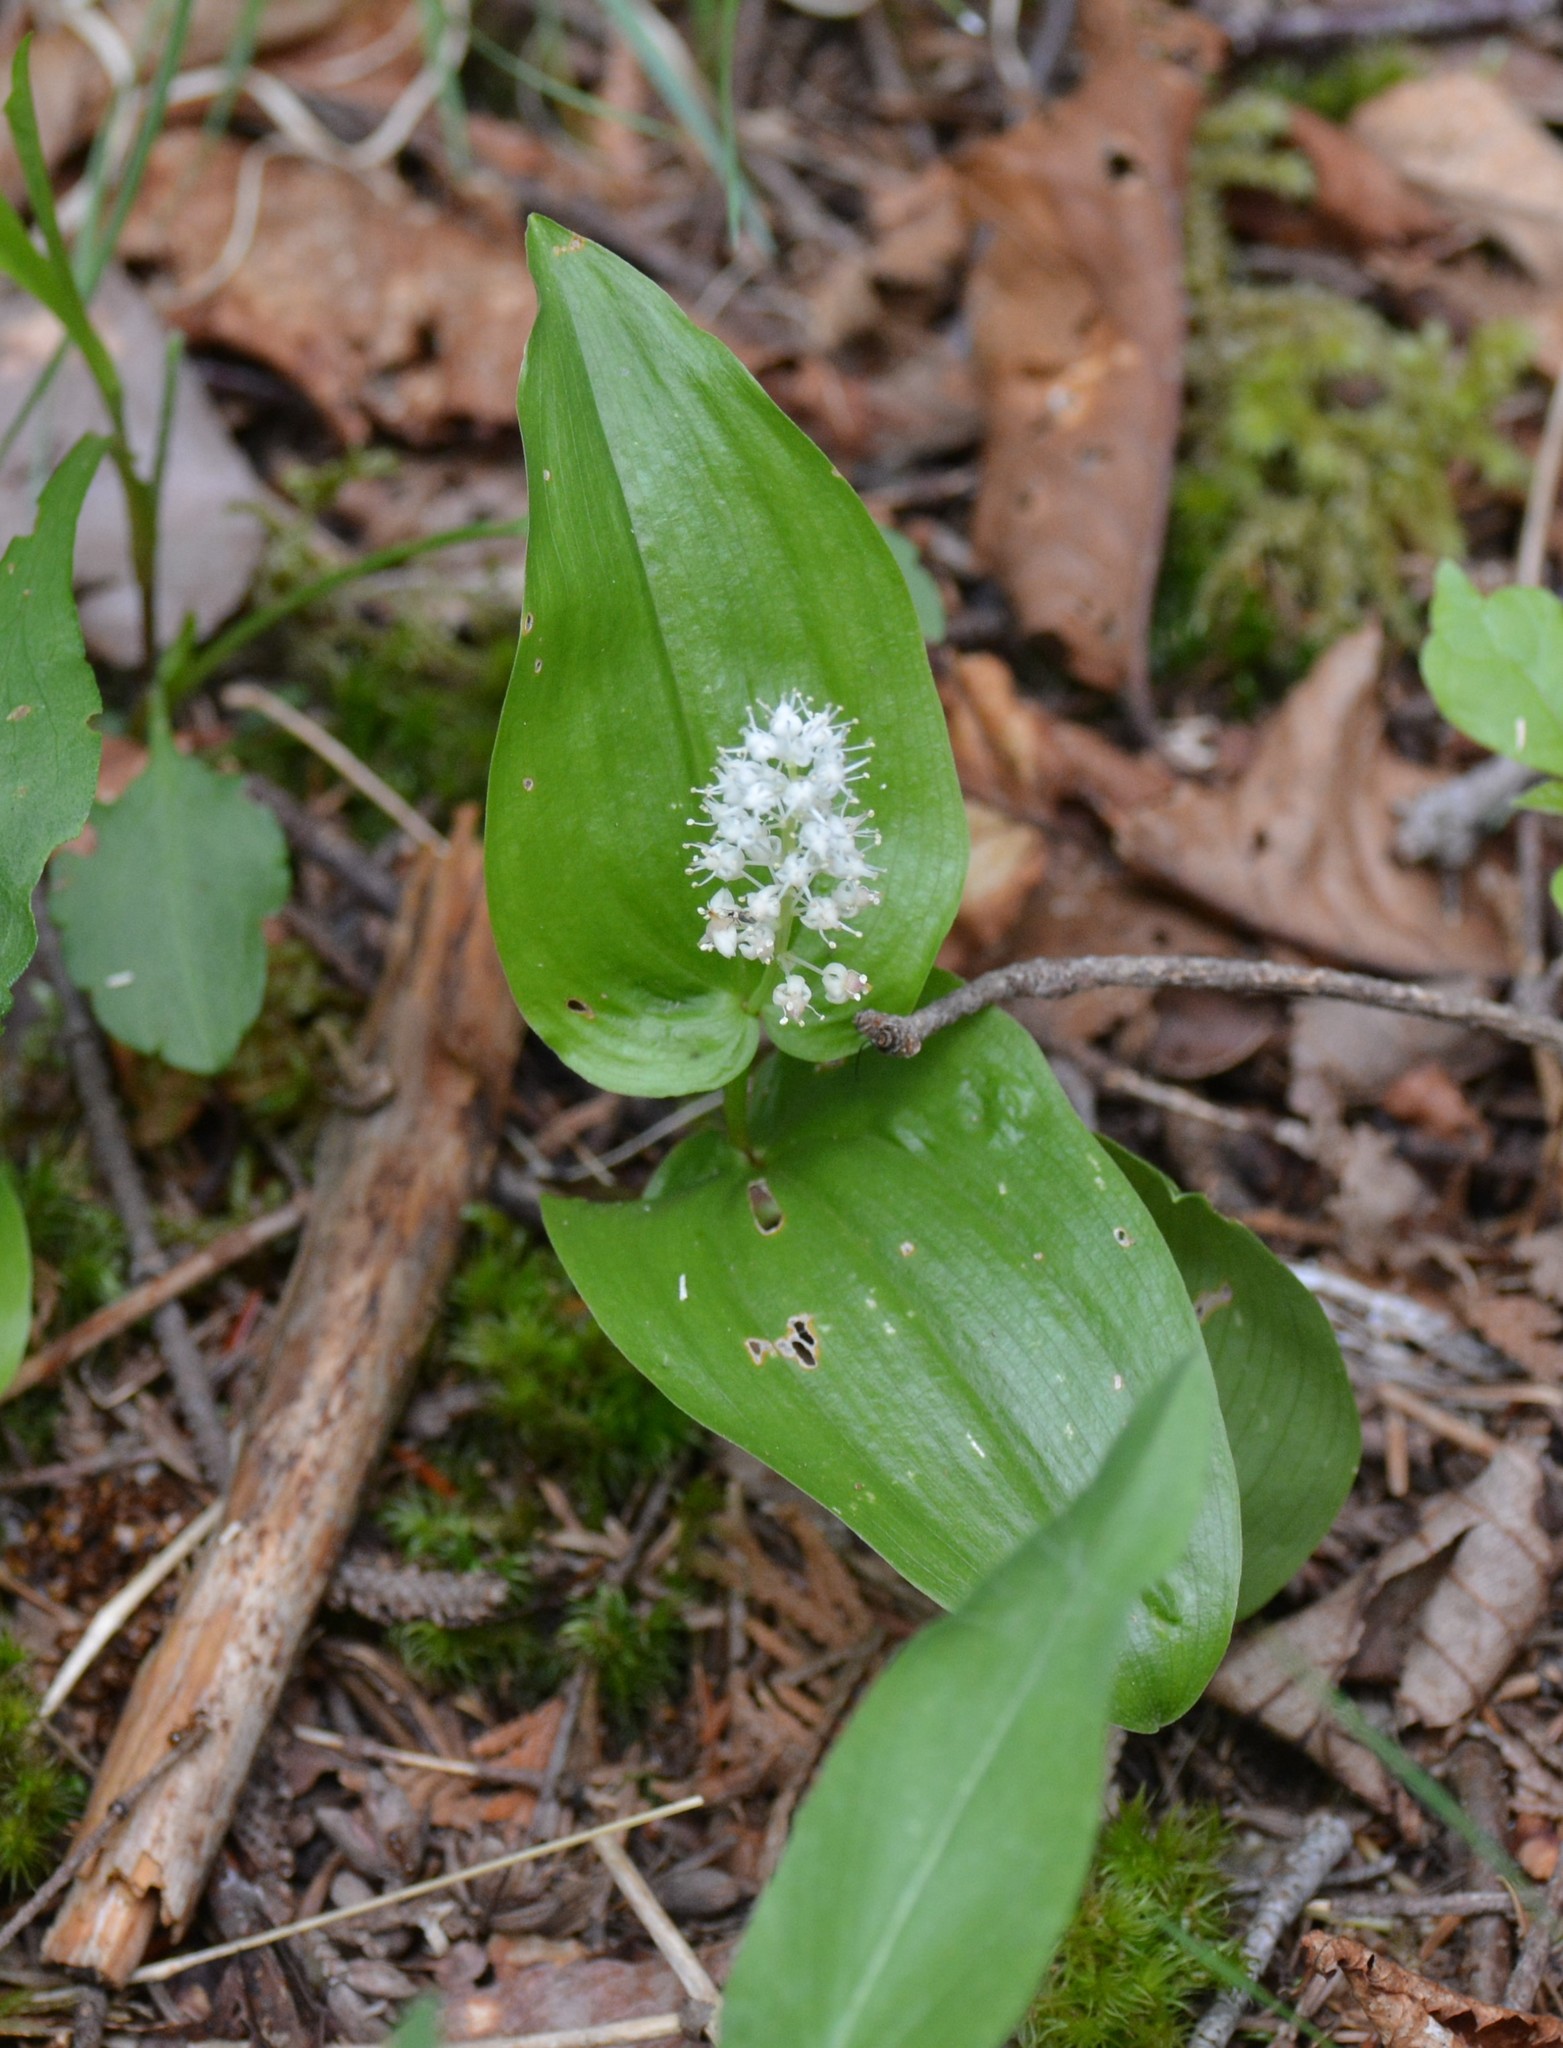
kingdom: Plantae
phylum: Tracheophyta
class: Liliopsida
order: Asparagales
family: Asparagaceae
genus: Maianthemum
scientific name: Maianthemum canadense
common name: False lily-of-the-valley
